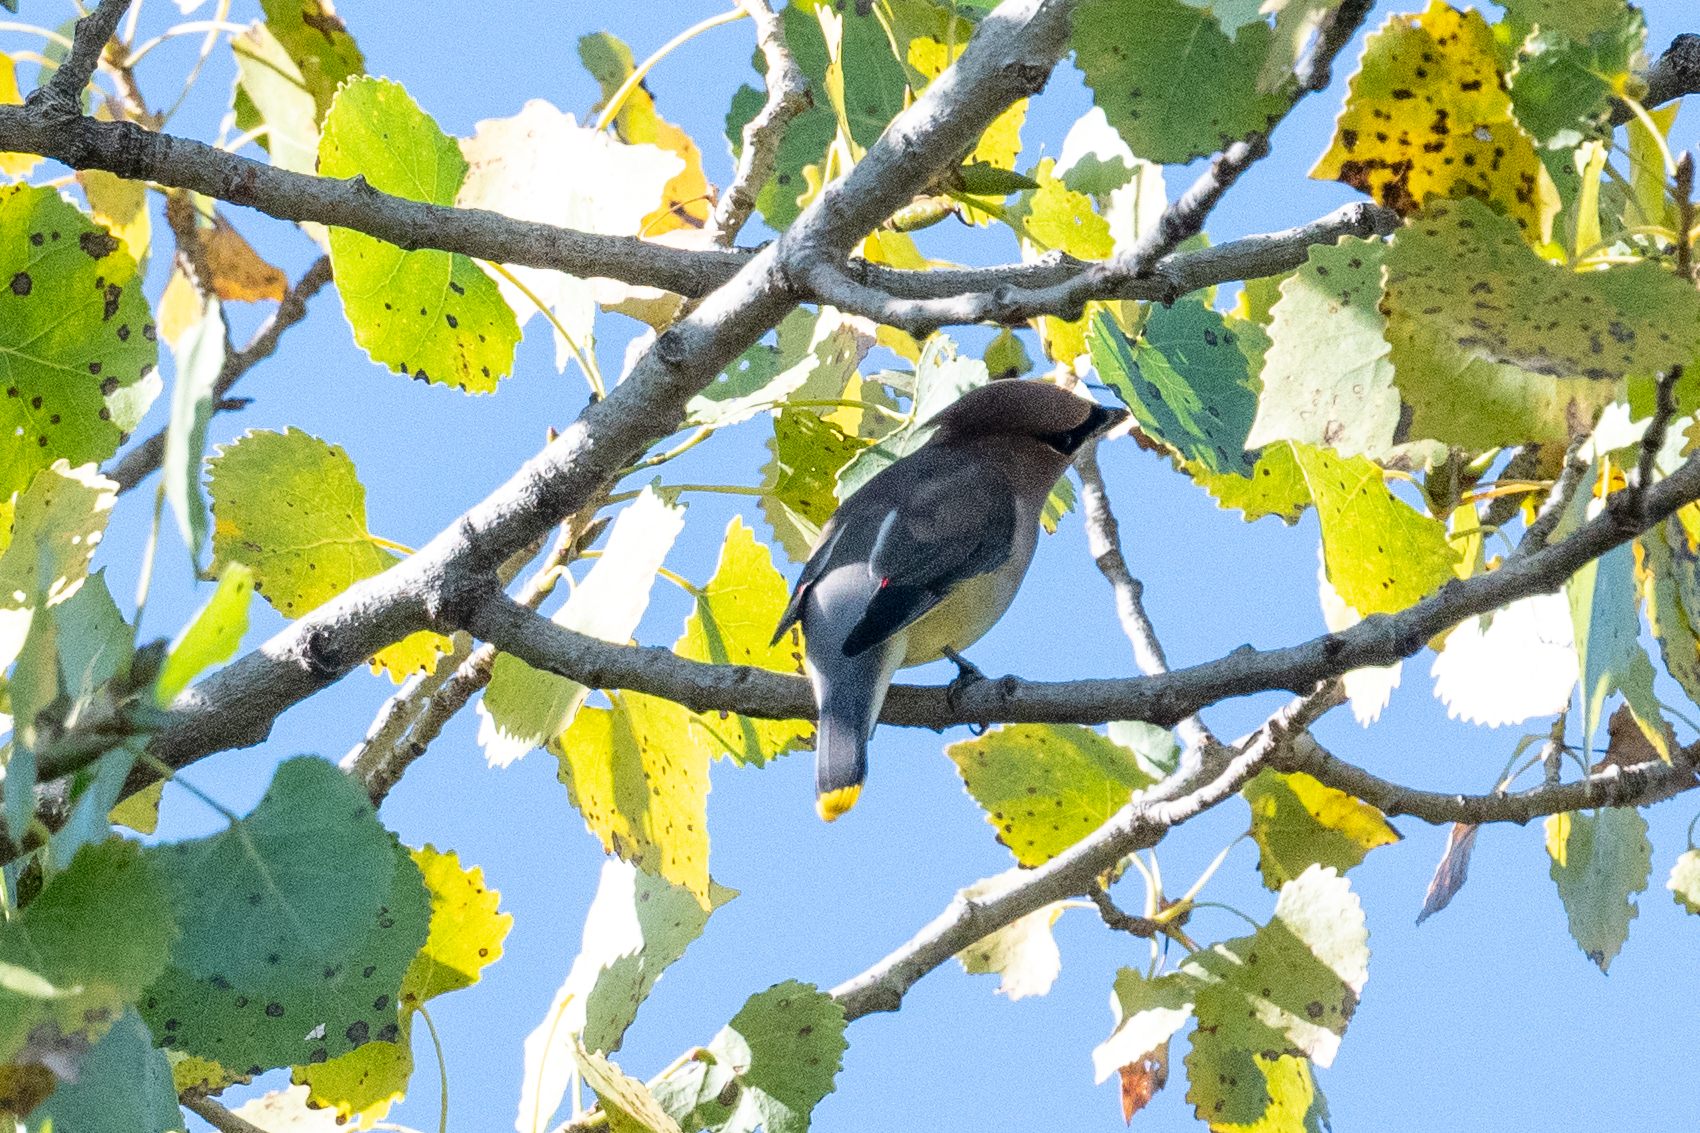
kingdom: Animalia
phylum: Chordata
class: Aves
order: Passeriformes
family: Bombycillidae
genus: Bombycilla
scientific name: Bombycilla cedrorum
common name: Cedar waxwing
